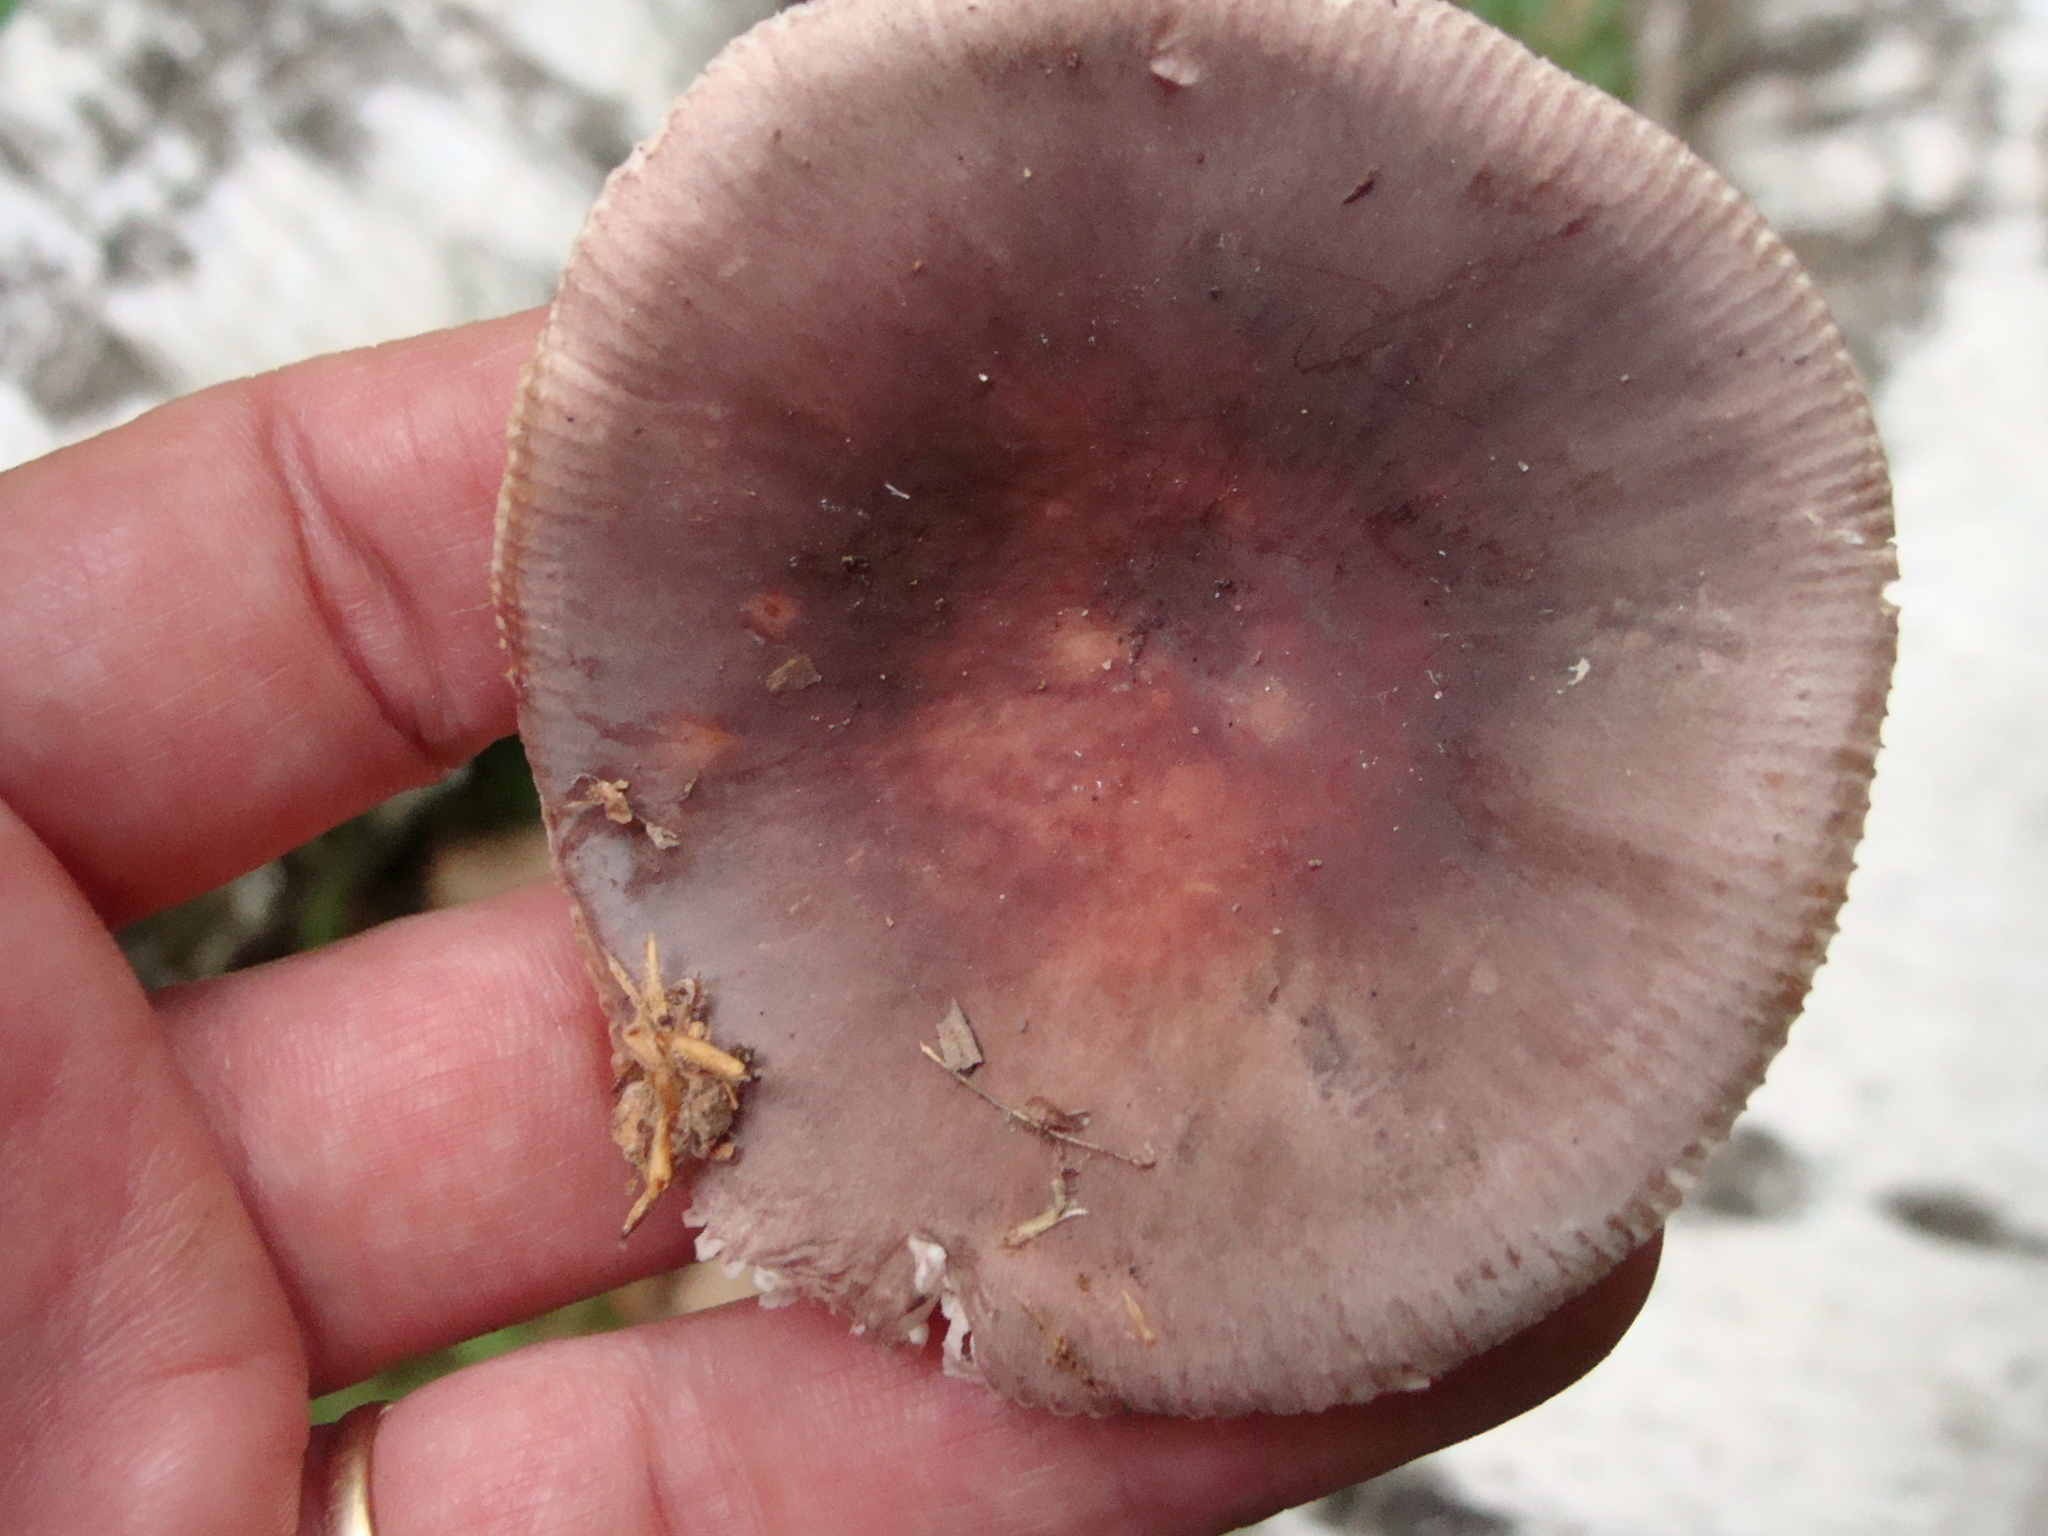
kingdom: Fungi
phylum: Basidiomycota
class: Agaricomycetes
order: Russulales
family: Russulaceae
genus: Russula
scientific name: Russula
